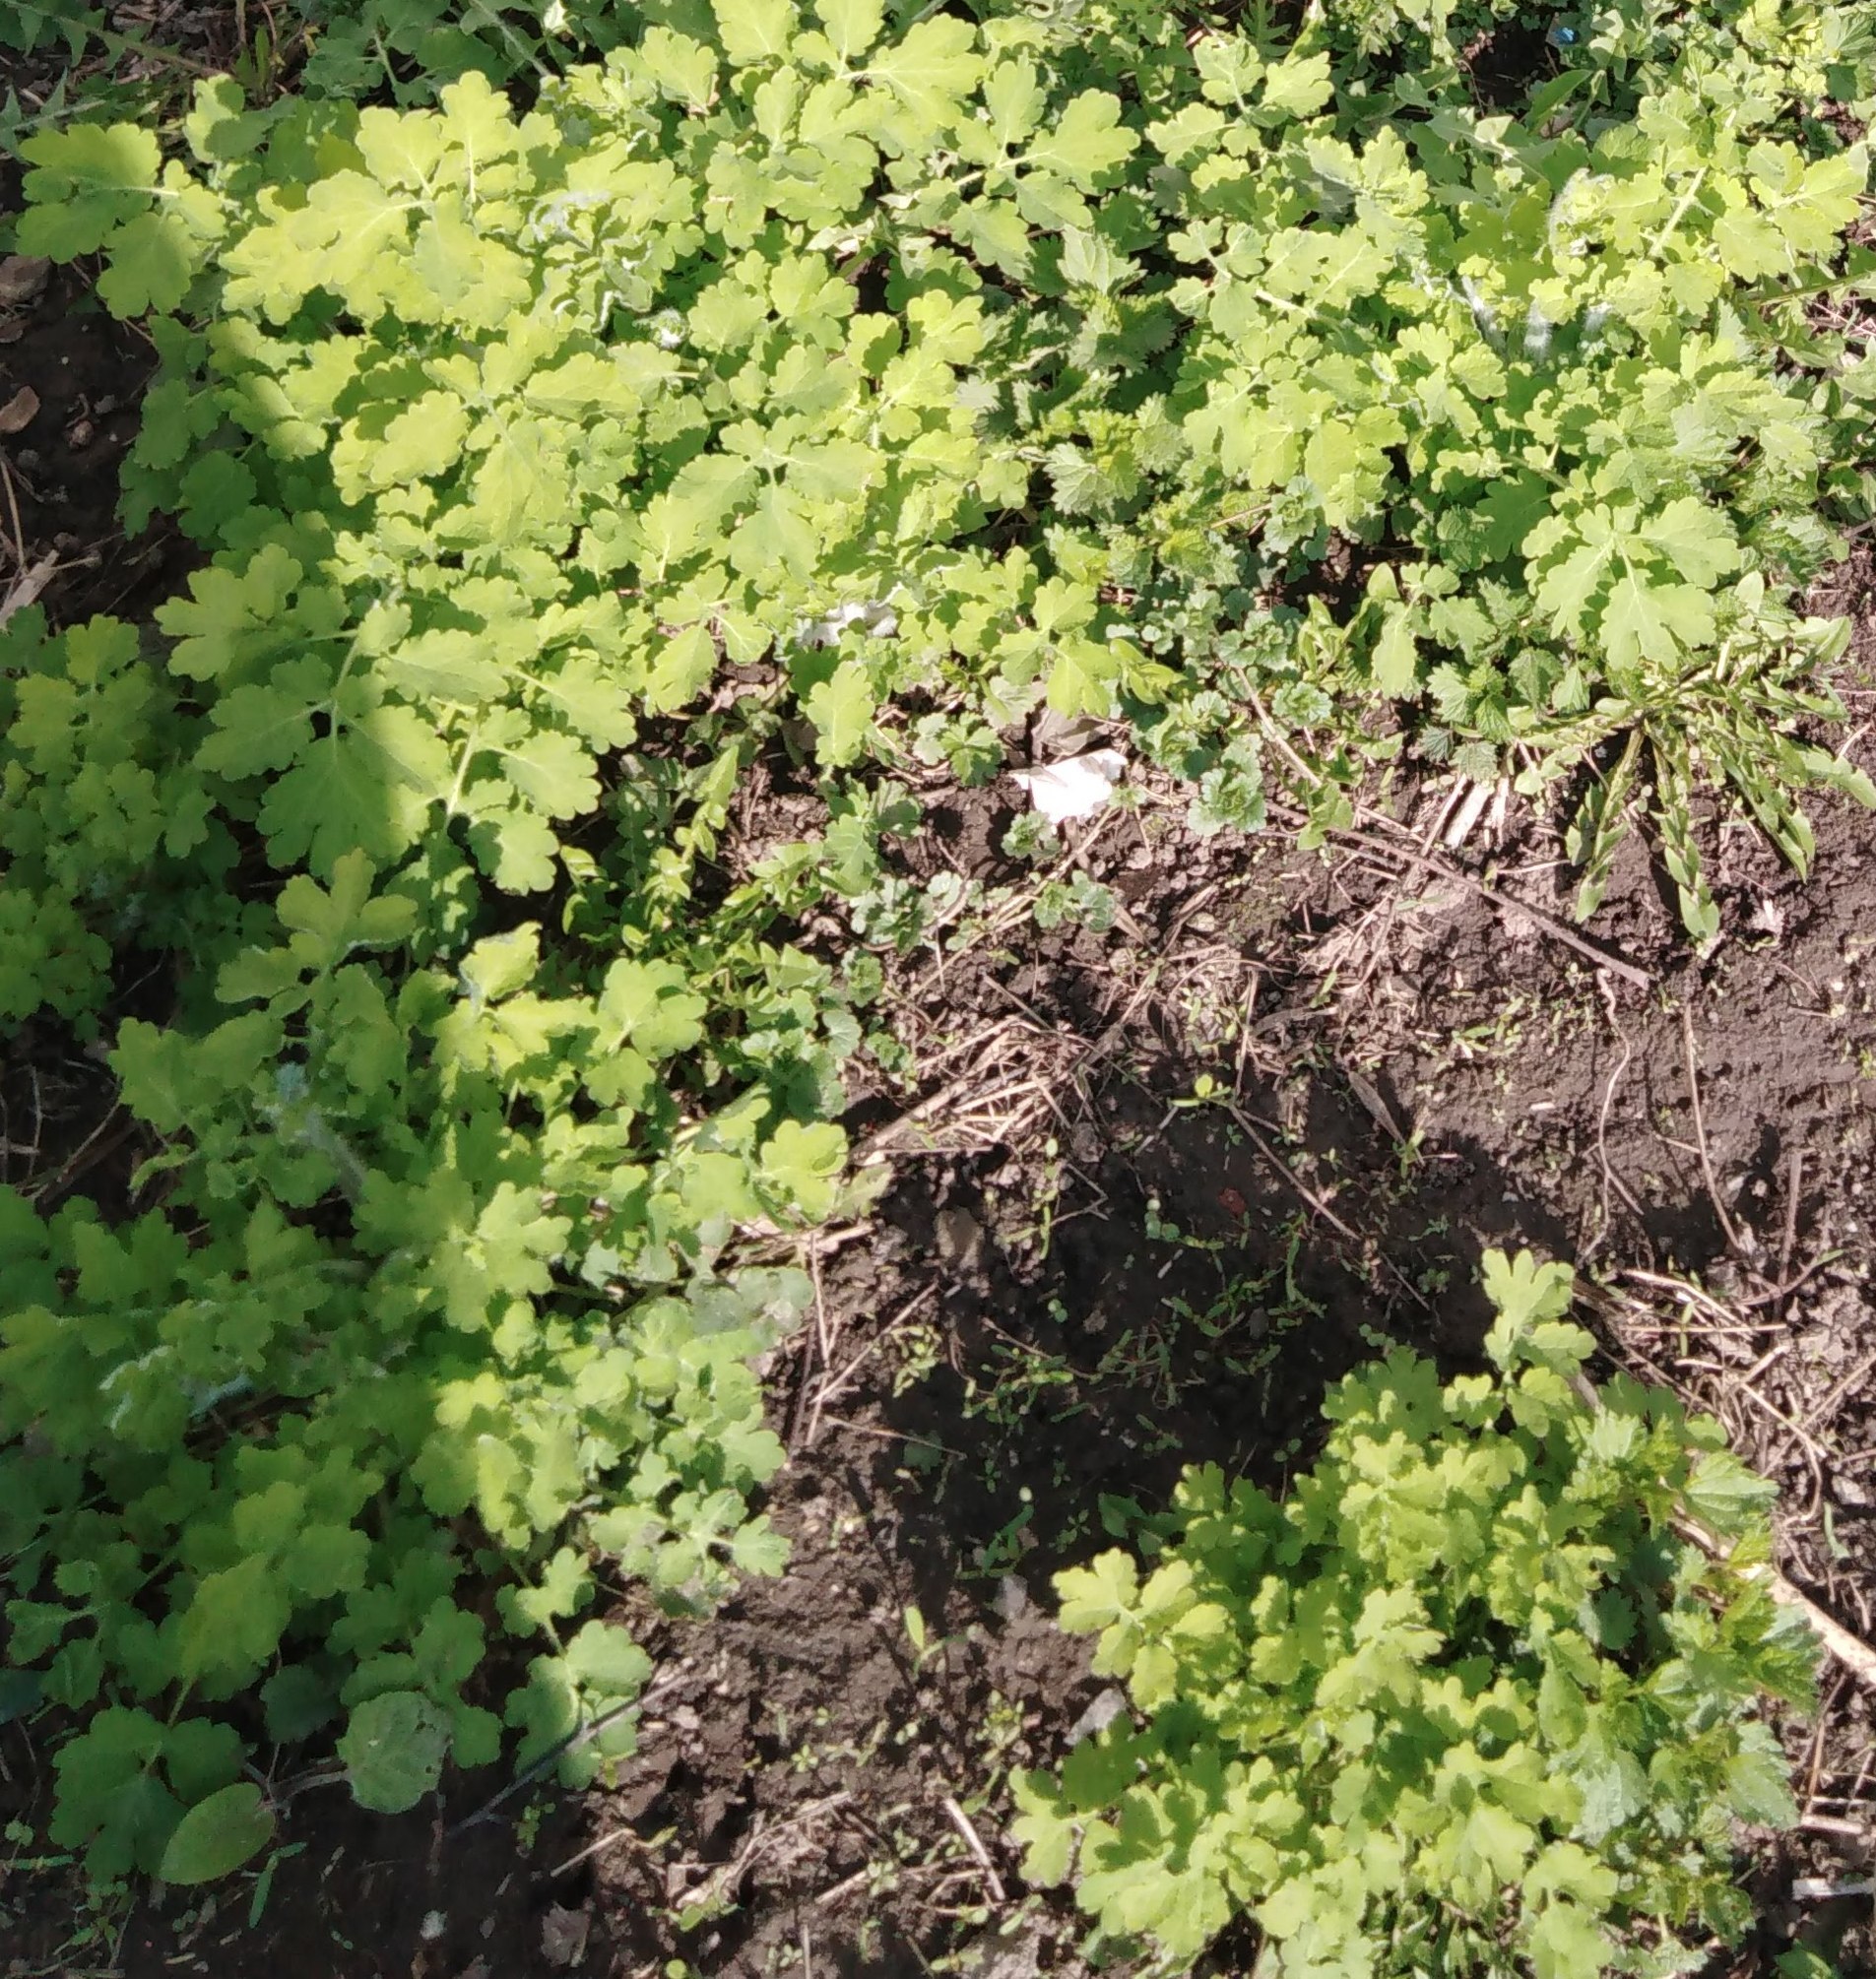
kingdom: Plantae
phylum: Tracheophyta
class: Magnoliopsida
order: Ranunculales
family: Papaveraceae
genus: Chelidonium
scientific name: Chelidonium majus
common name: Greater celandine
